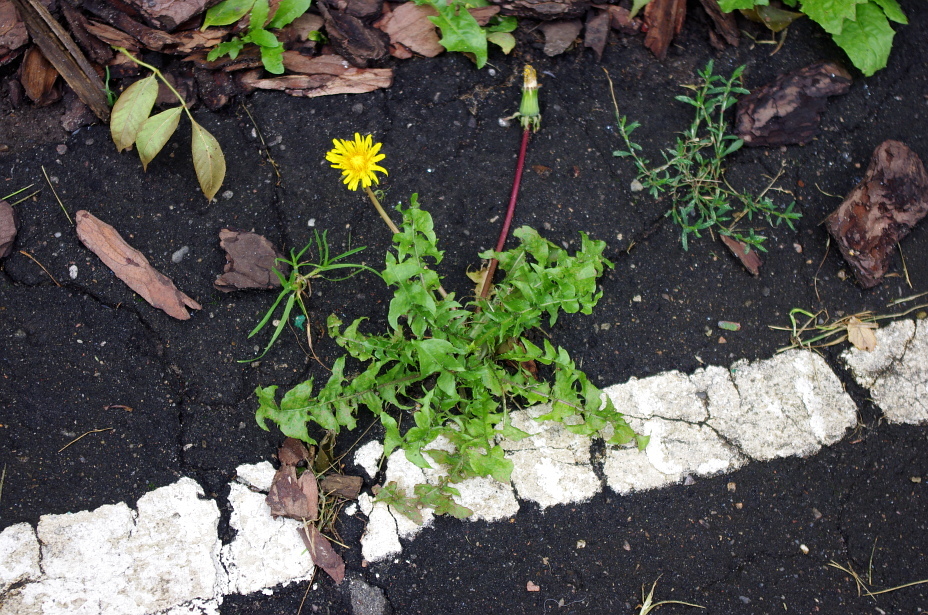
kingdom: Plantae
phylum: Tracheophyta
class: Magnoliopsida
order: Asterales
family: Asteraceae
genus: Taraxacum
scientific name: Taraxacum officinale
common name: Common dandelion
